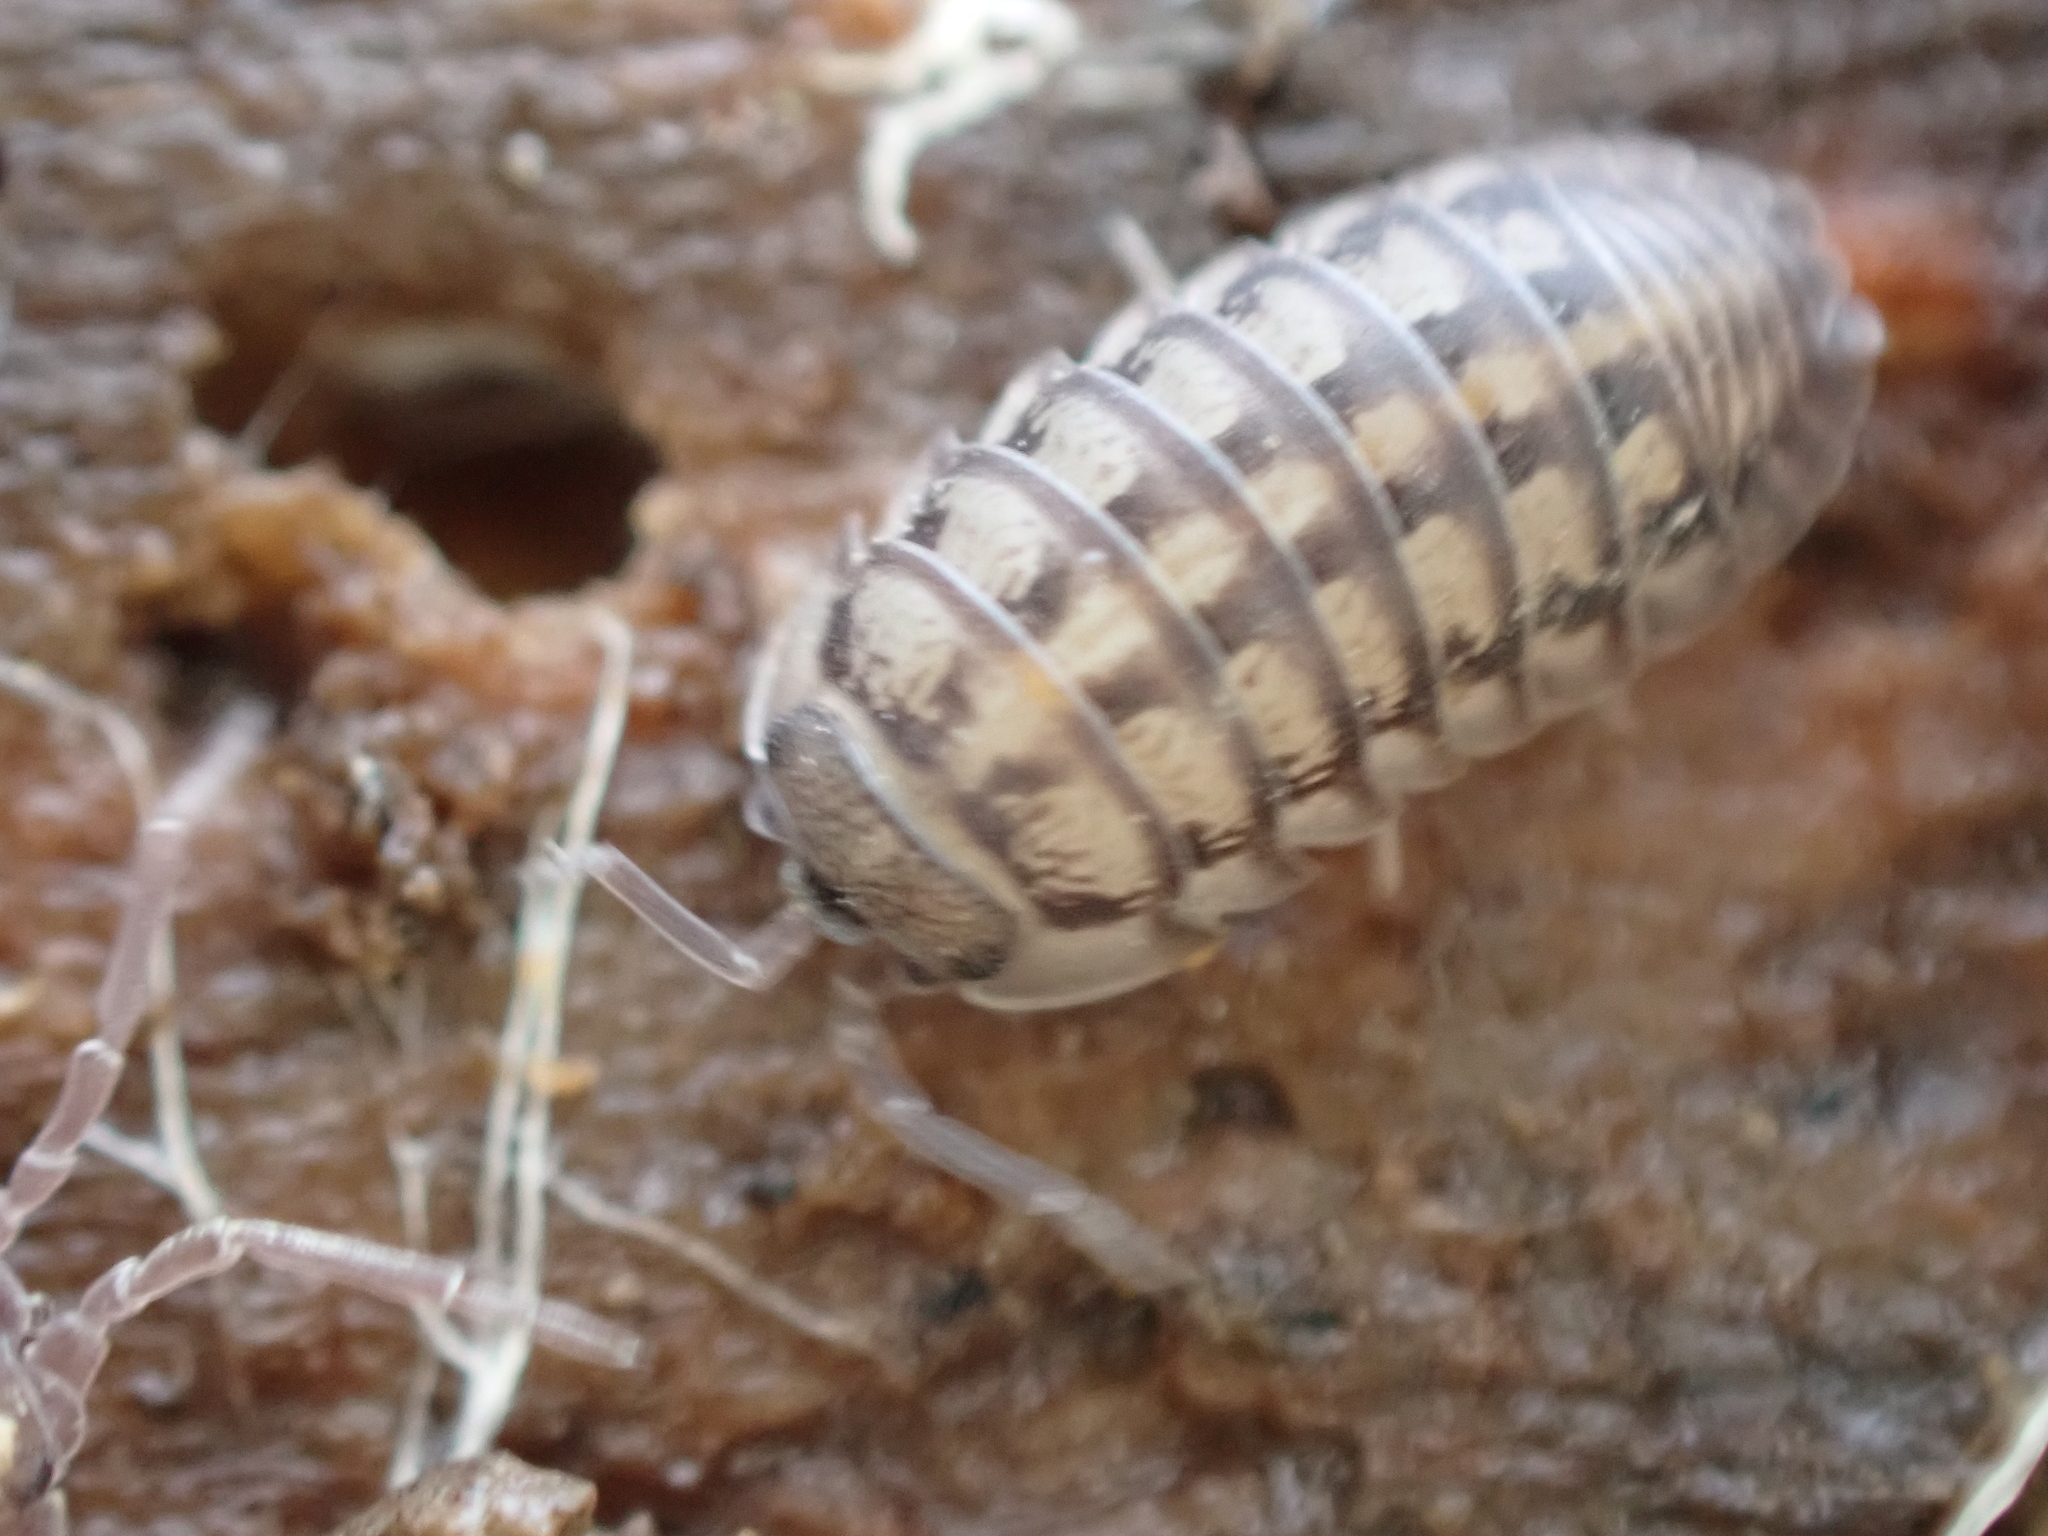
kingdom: Animalia
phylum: Arthropoda
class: Malacostraca
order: Isopoda
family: Armadillidiidae
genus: Armadillidium
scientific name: Armadillidium nasatum
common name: Isopod
